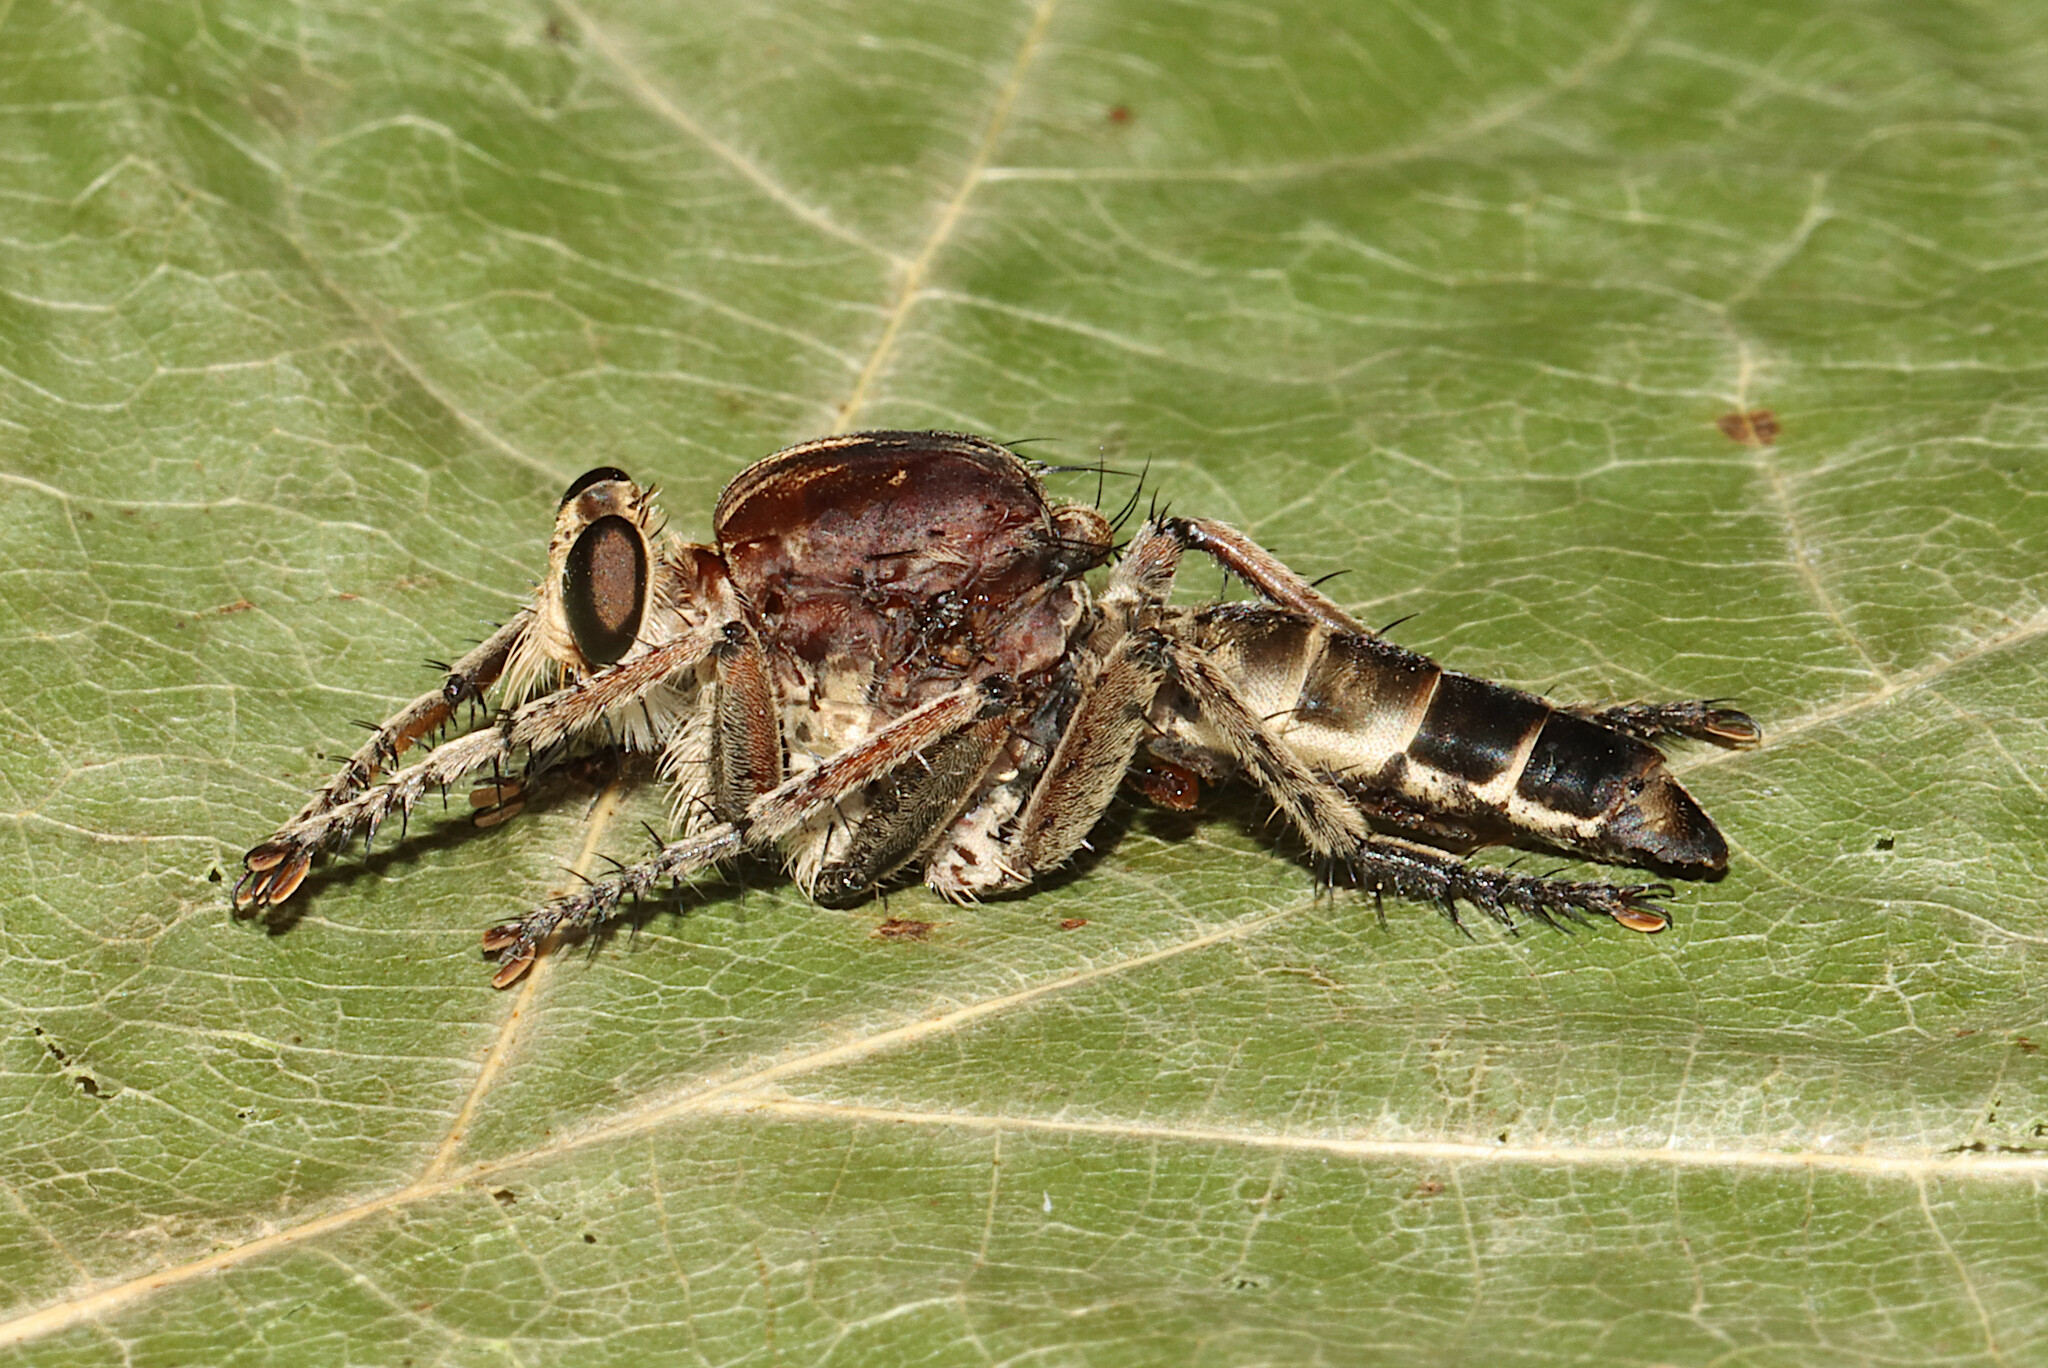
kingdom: Animalia
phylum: Arthropoda
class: Insecta
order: Diptera
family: Asilidae
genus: Triorla
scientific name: Triorla interrupta
